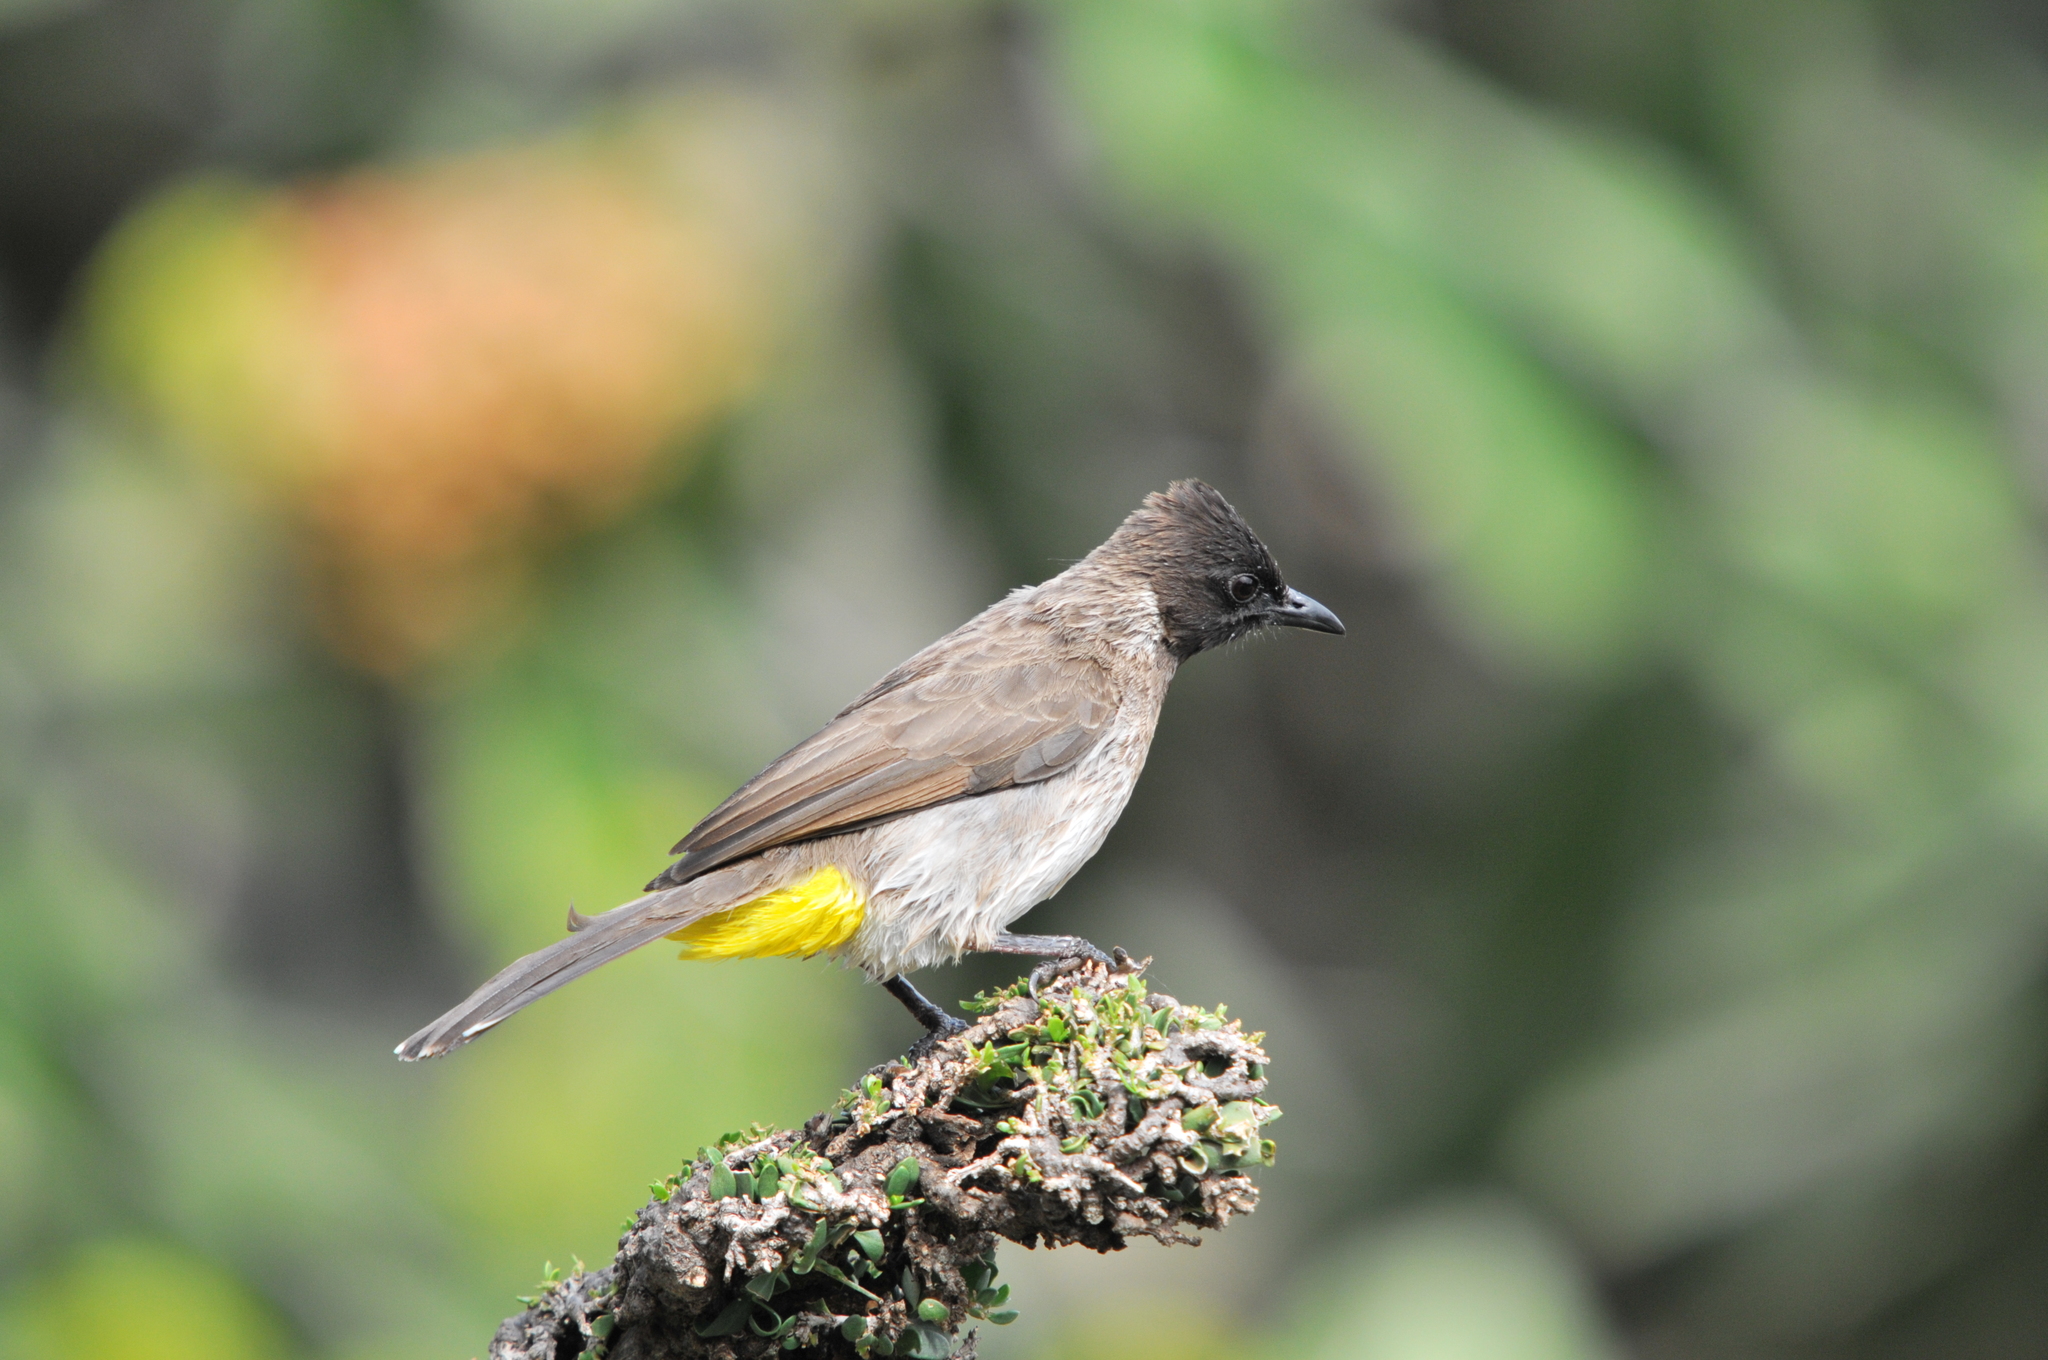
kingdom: Animalia
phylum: Chordata
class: Aves
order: Passeriformes
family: Pycnonotidae
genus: Pycnonotus
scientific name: Pycnonotus barbatus
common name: Common bulbul
